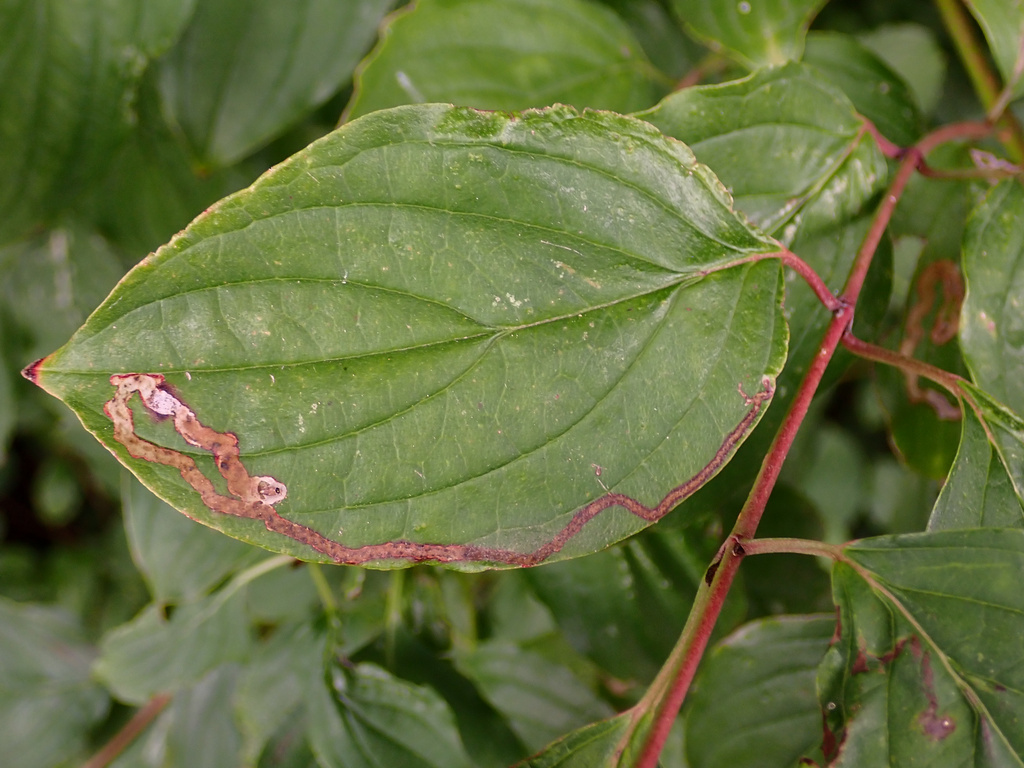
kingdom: Animalia
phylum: Arthropoda
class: Insecta
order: Diptera
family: Agromyzidae
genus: Phytomyza
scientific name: Phytomyza agromyzina
